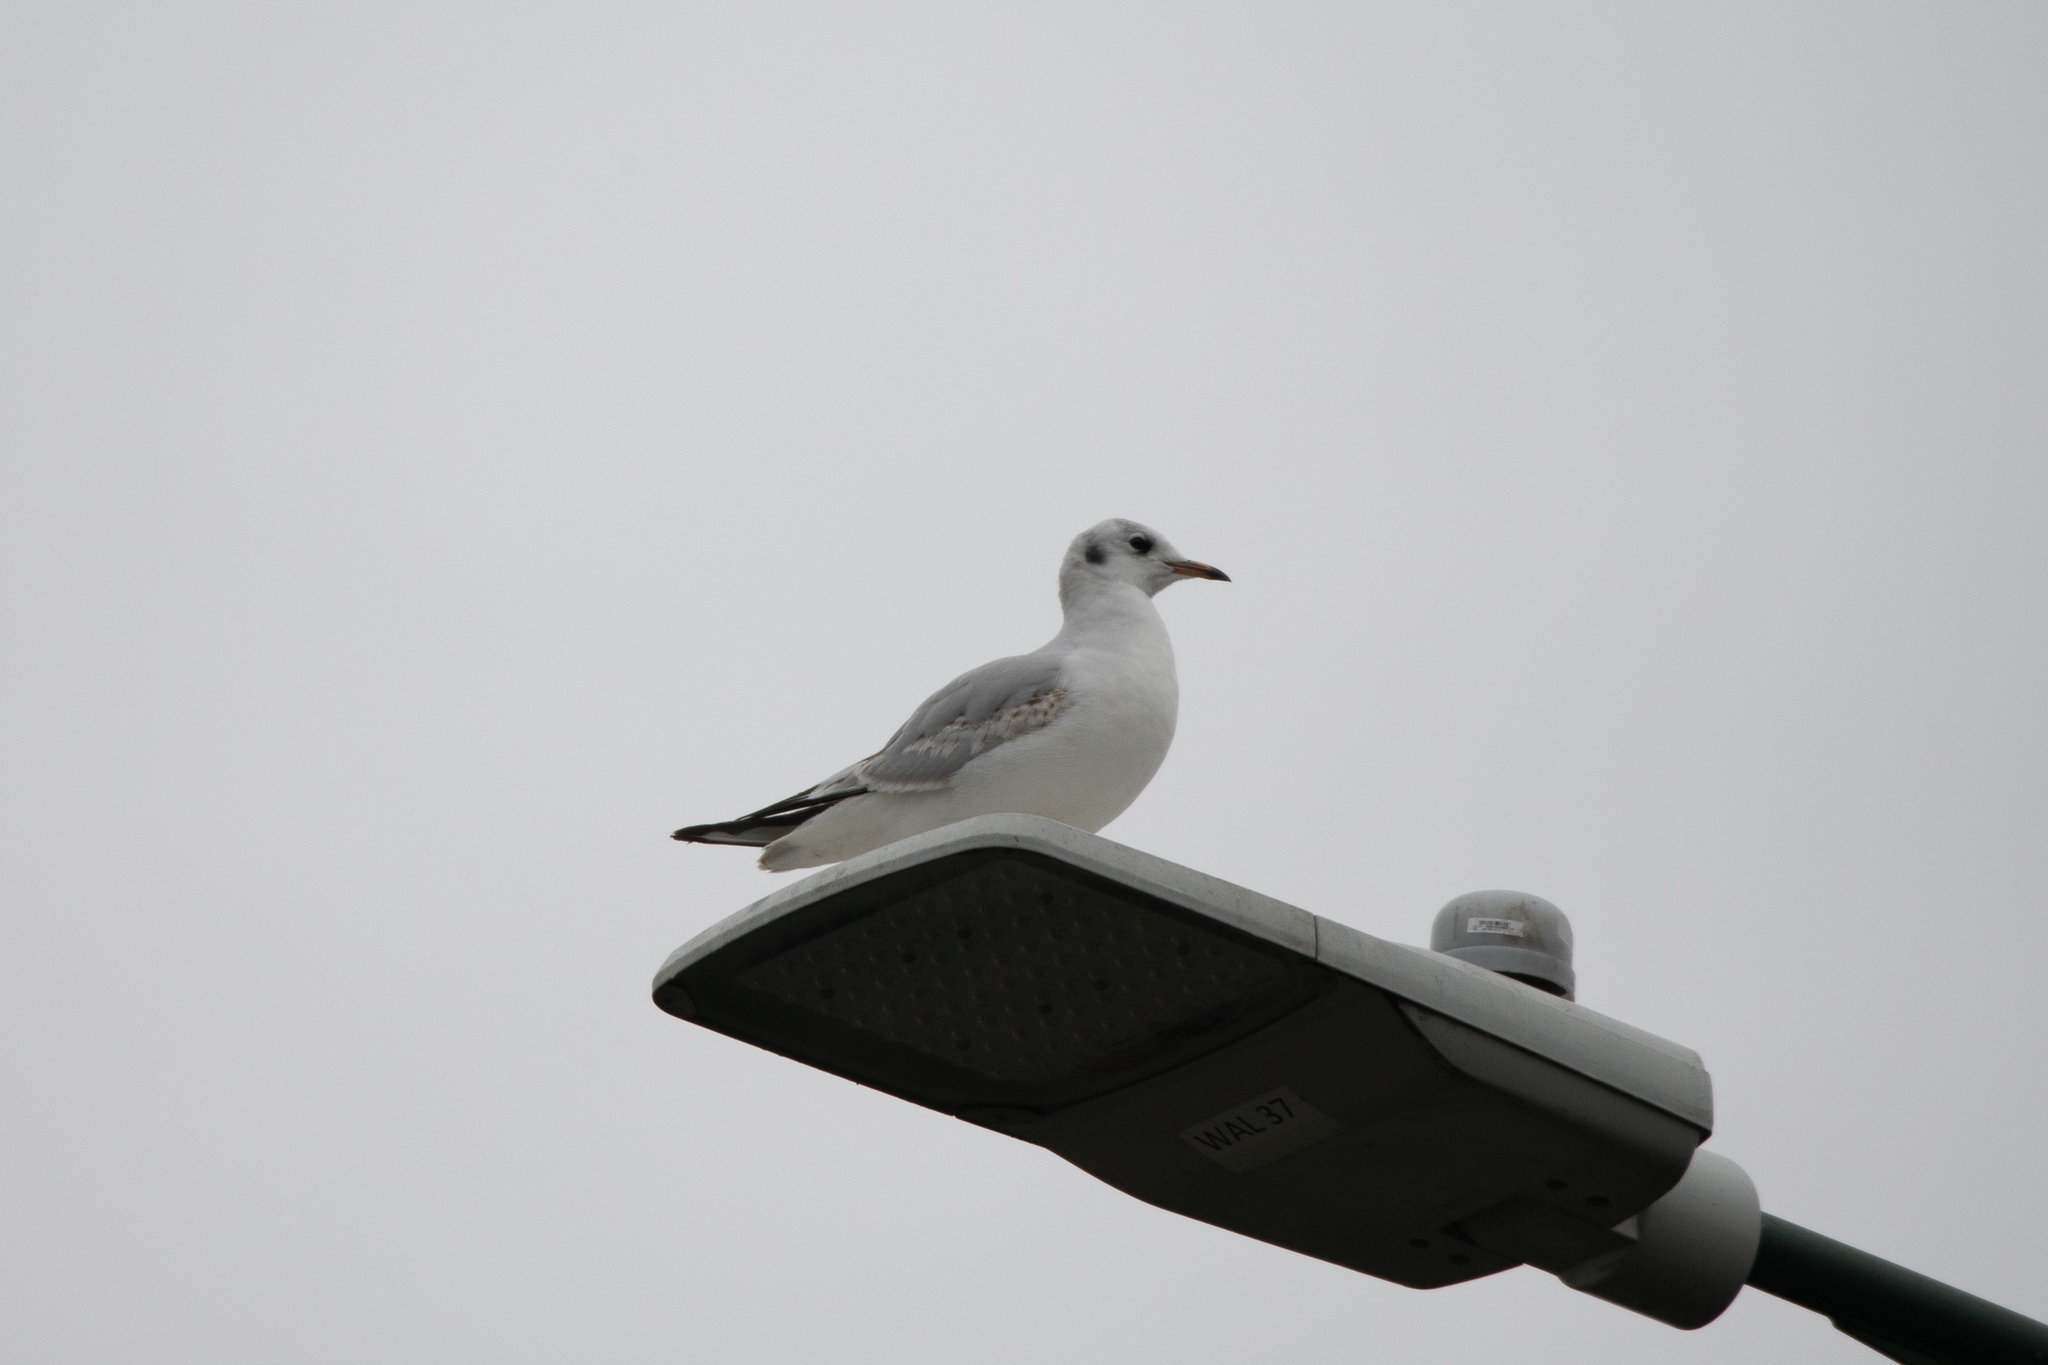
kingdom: Animalia
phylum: Chordata
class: Aves
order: Charadriiformes
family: Laridae
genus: Chroicocephalus
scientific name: Chroicocephalus ridibundus
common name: Black-headed gull
